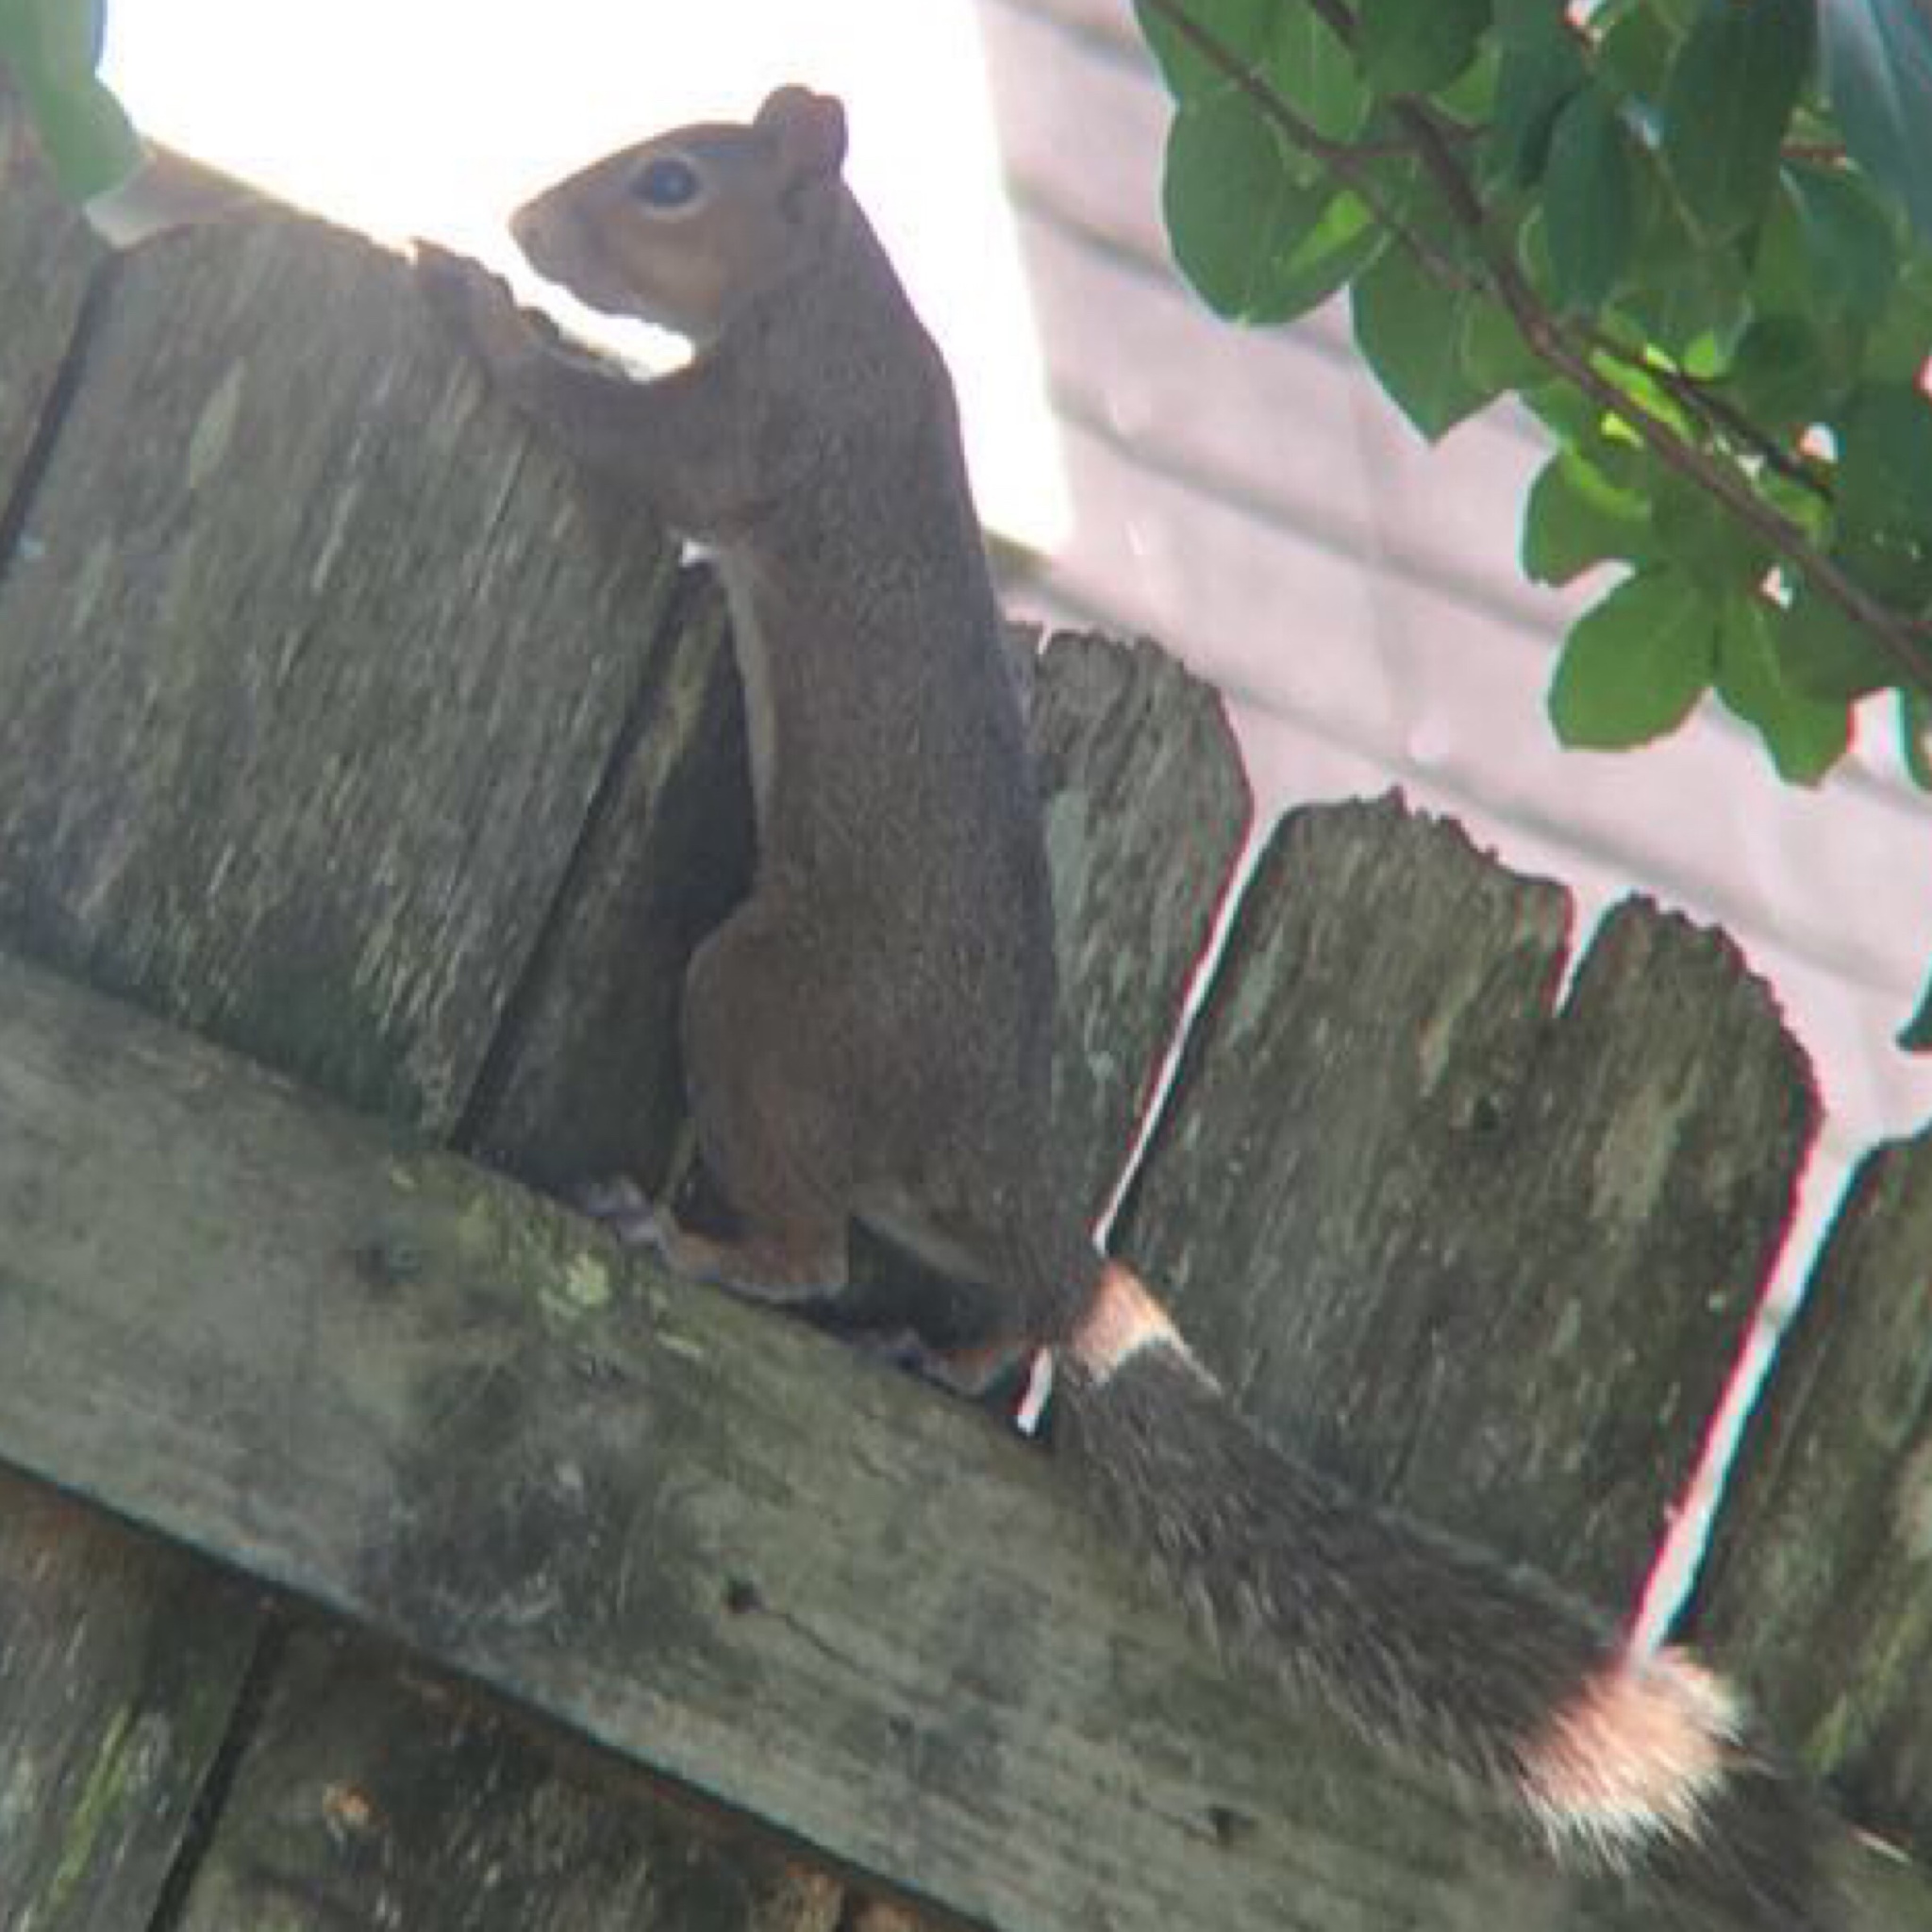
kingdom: Animalia
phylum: Chordata
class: Mammalia
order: Rodentia
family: Sciuridae
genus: Sciurus
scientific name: Sciurus carolinensis
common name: Eastern gray squirrel
